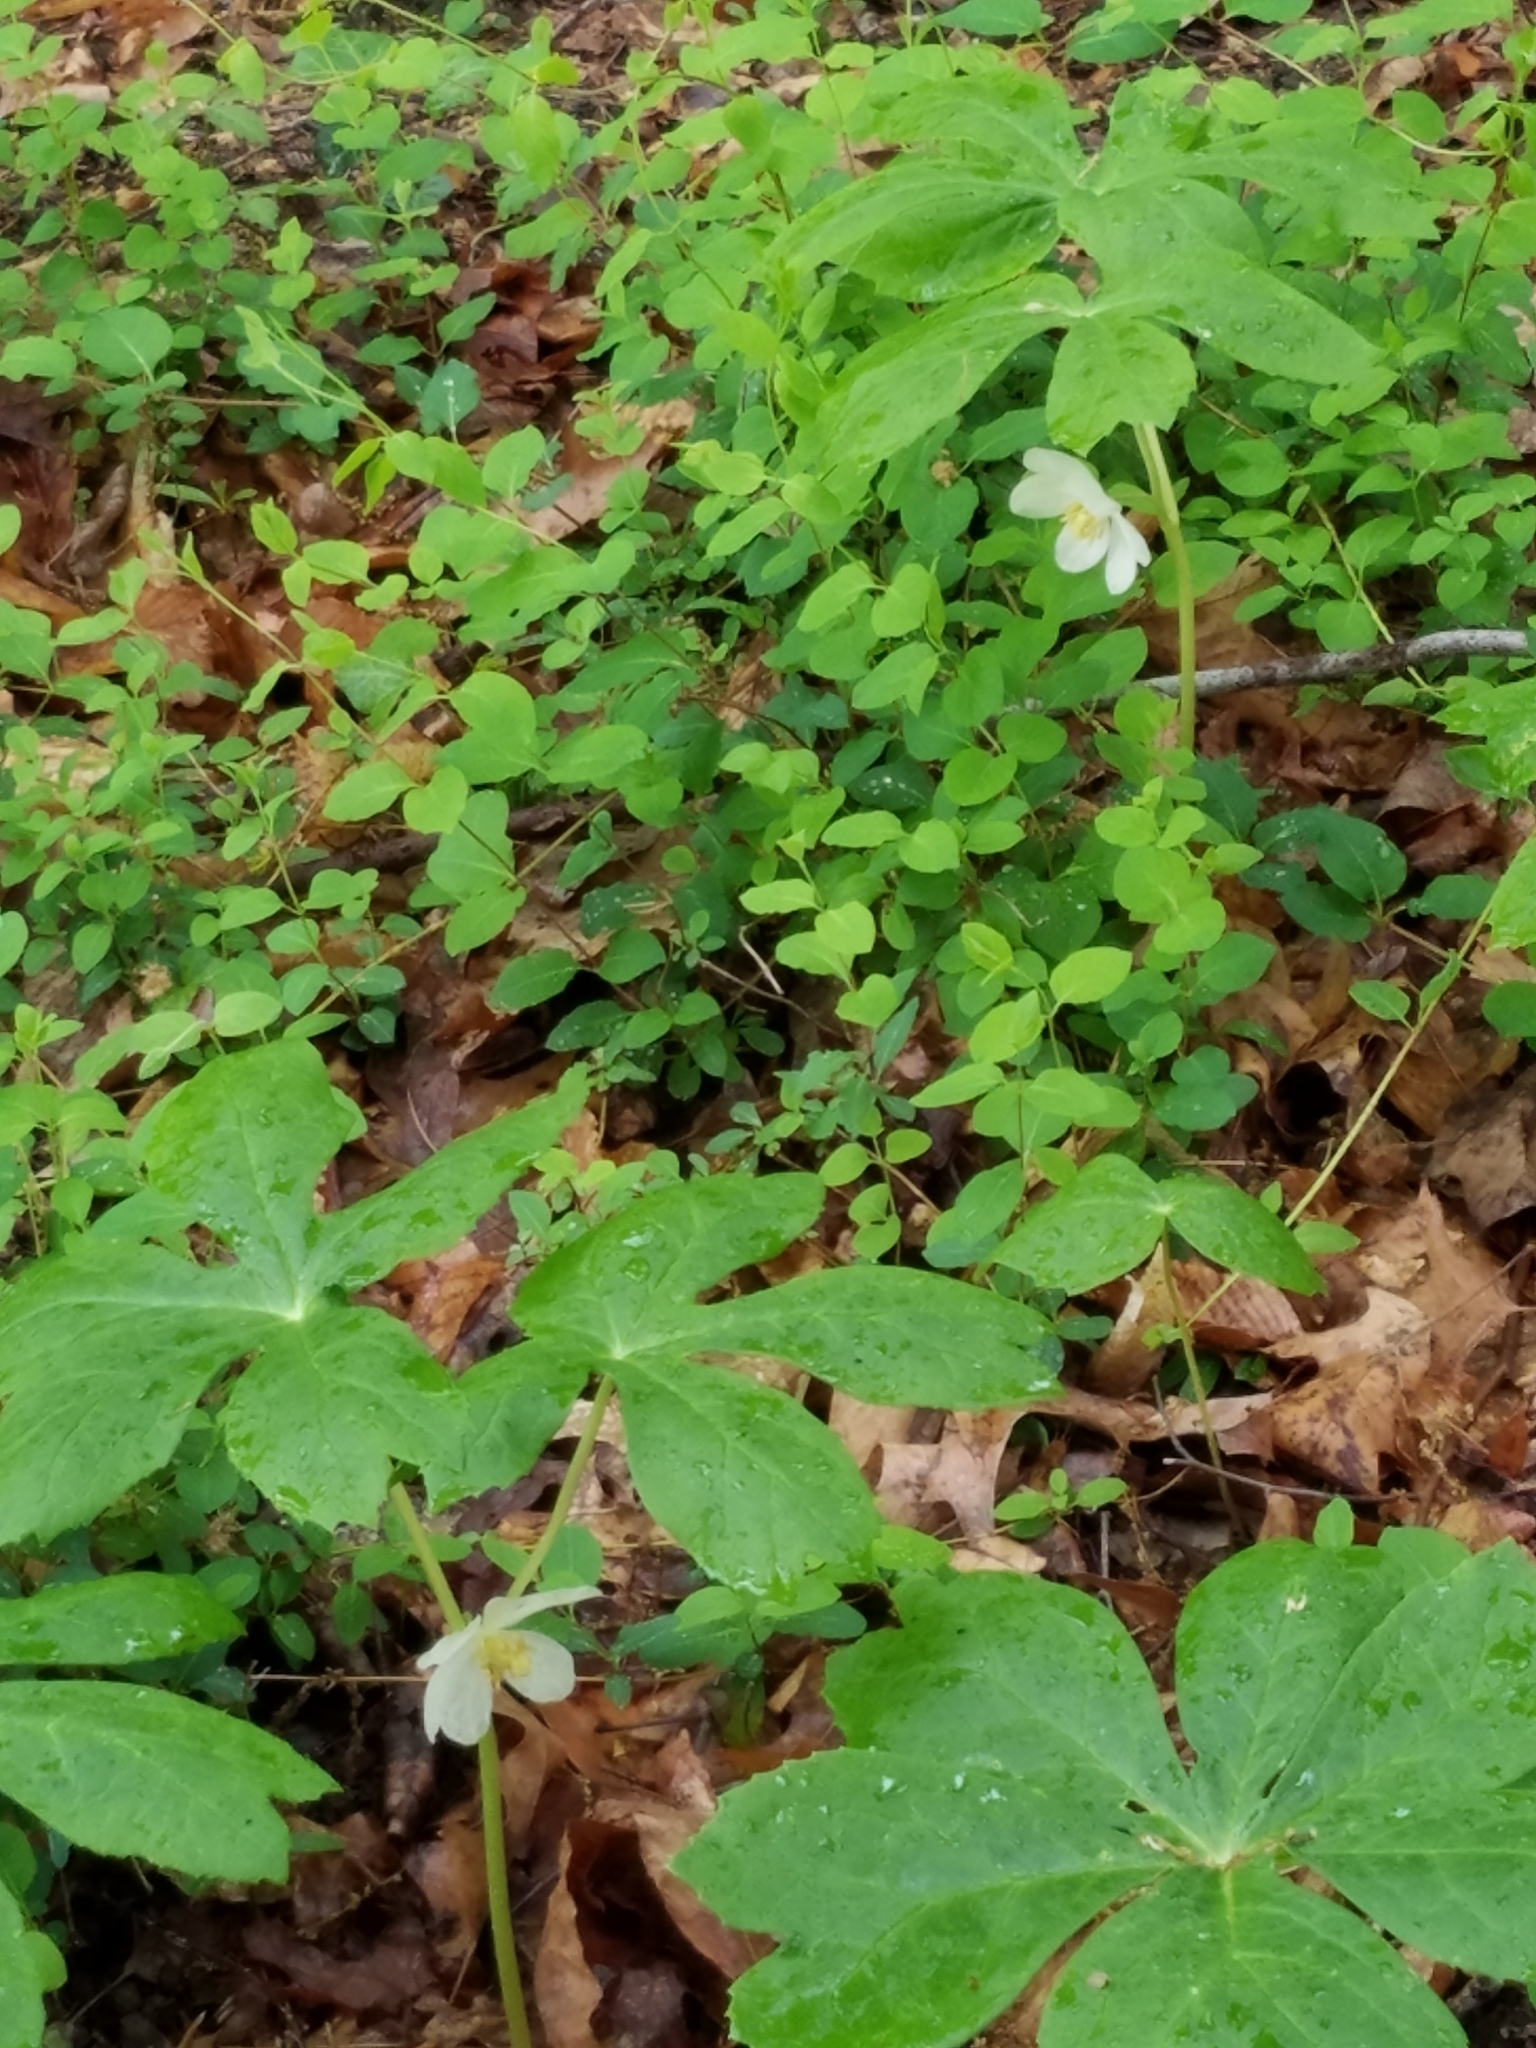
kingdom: Plantae
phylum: Tracheophyta
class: Magnoliopsida
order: Ranunculales
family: Berberidaceae
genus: Podophyllum
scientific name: Podophyllum peltatum
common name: Wild mandrake
